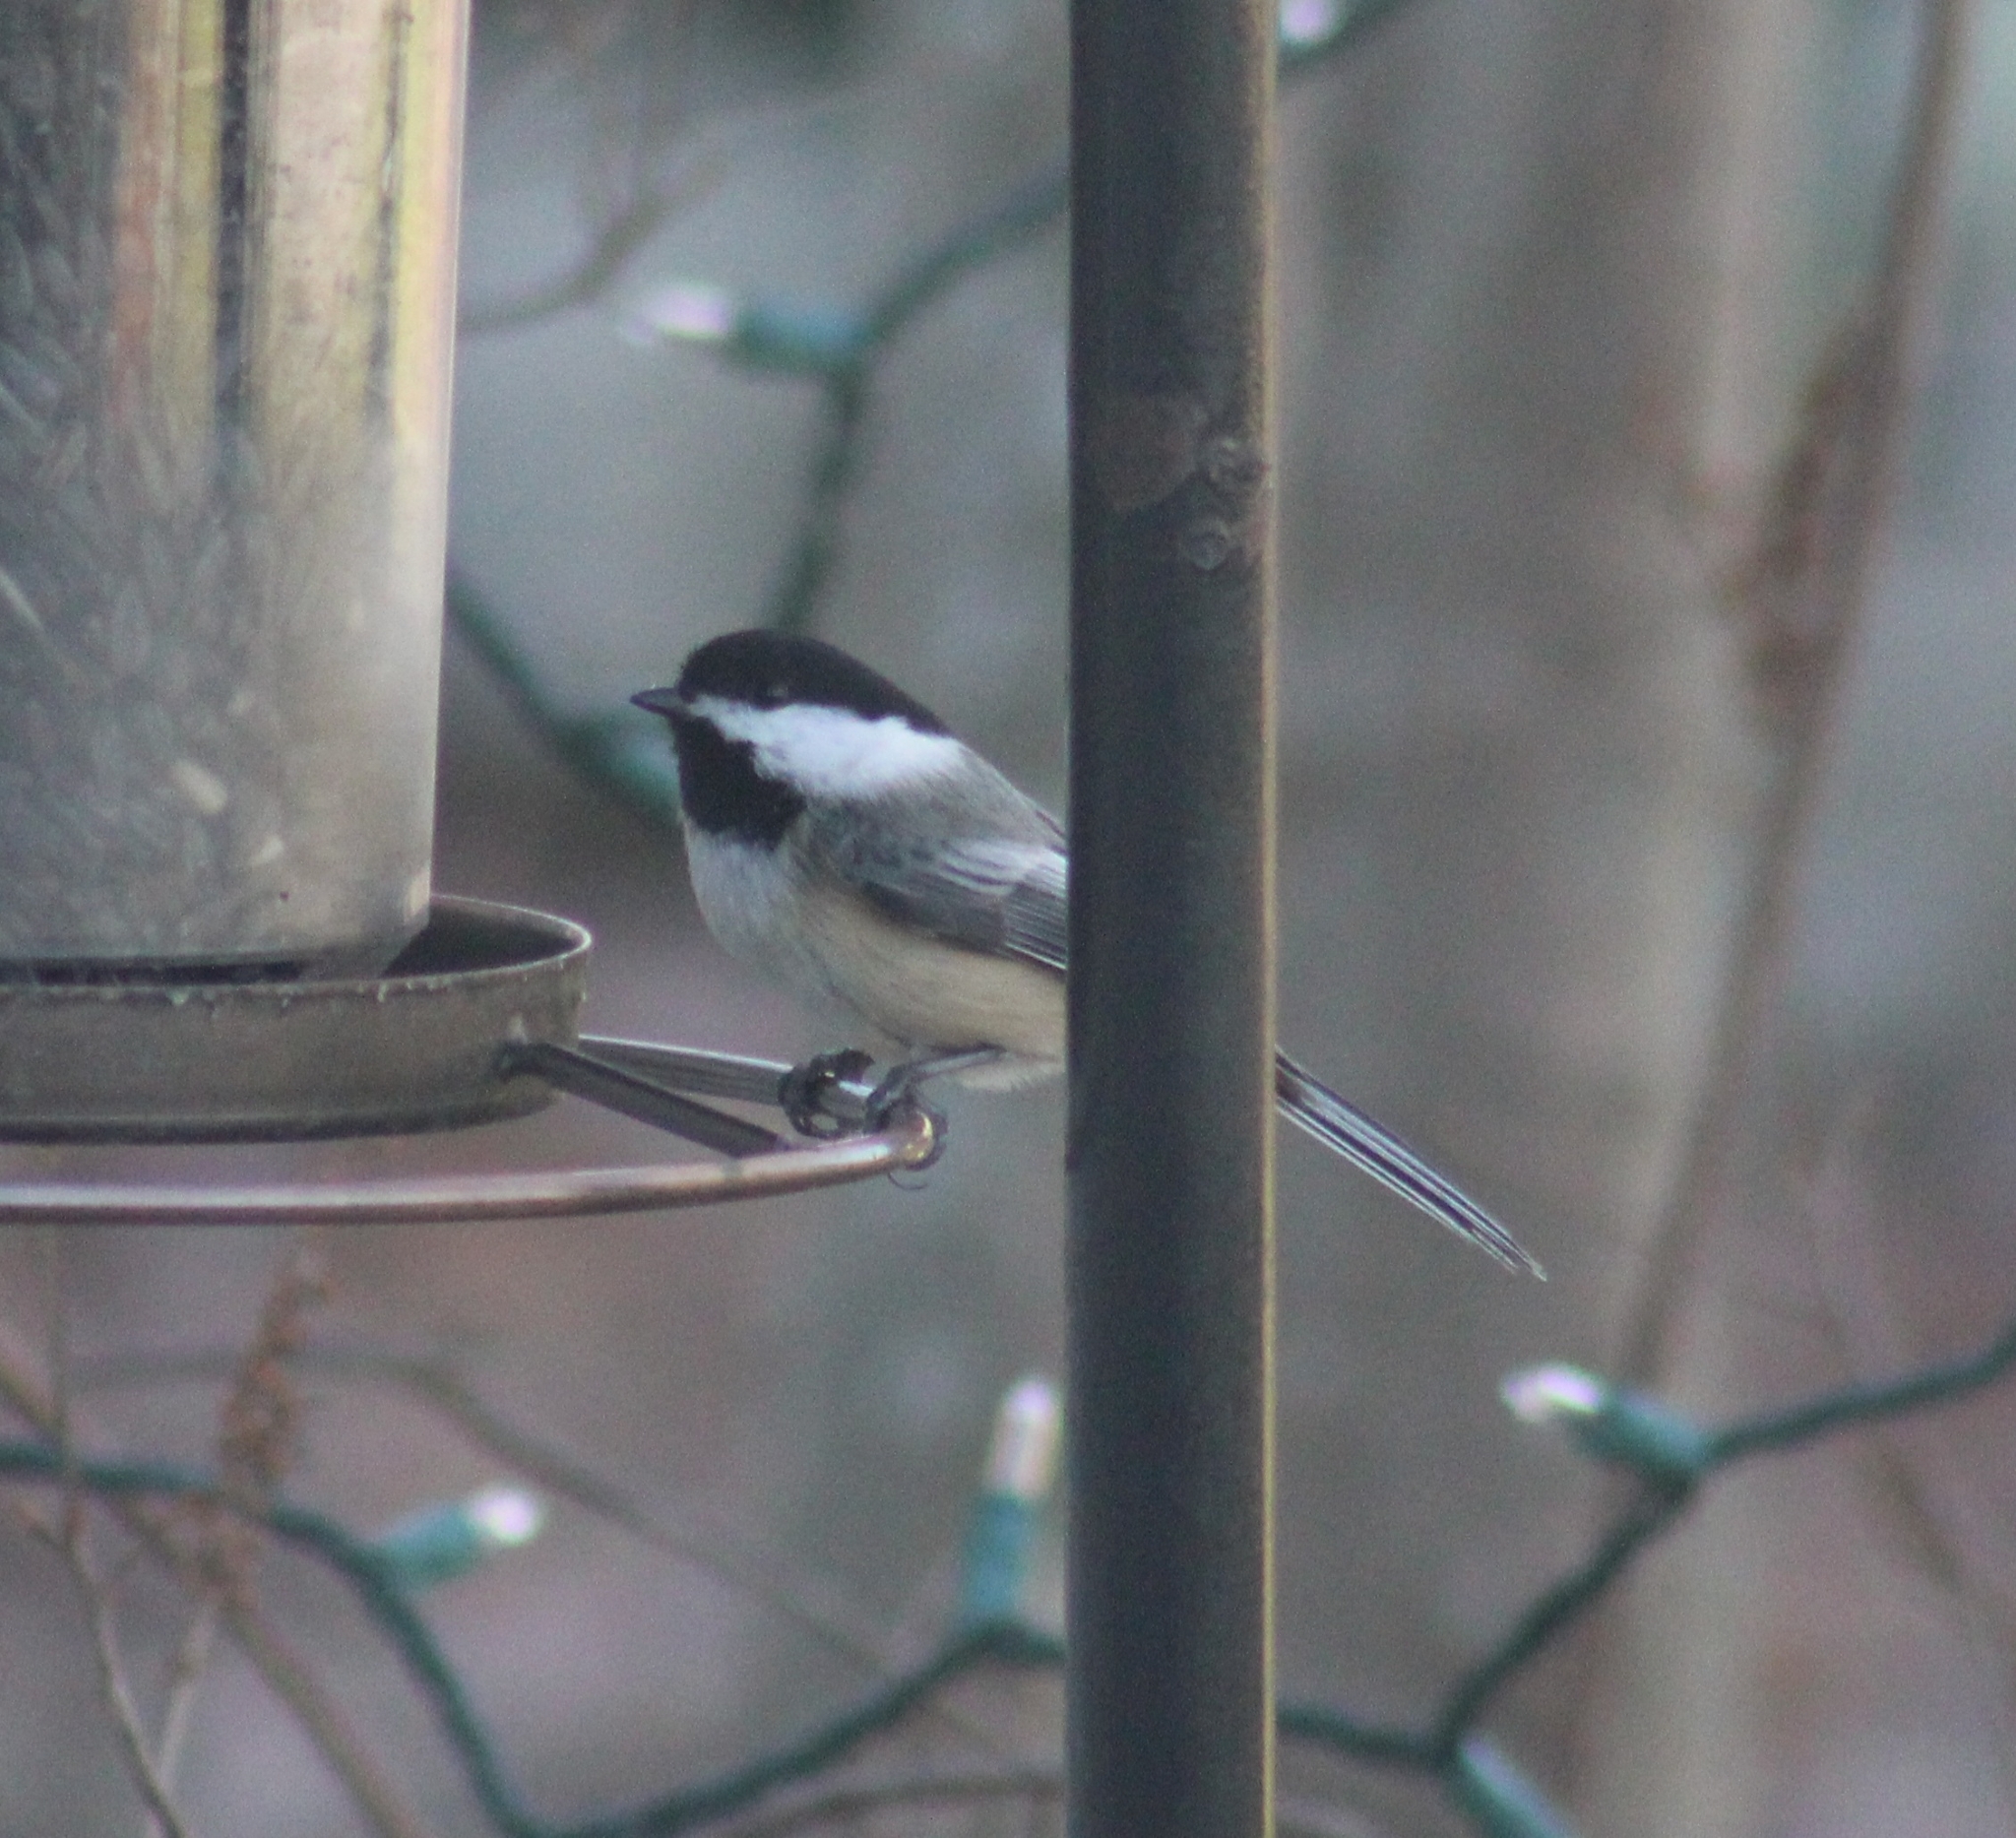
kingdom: Animalia
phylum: Chordata
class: Aves
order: Passeriformes
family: Paridae
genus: Poecile
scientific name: Poecile atricapillus
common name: Black-capped chickadee
